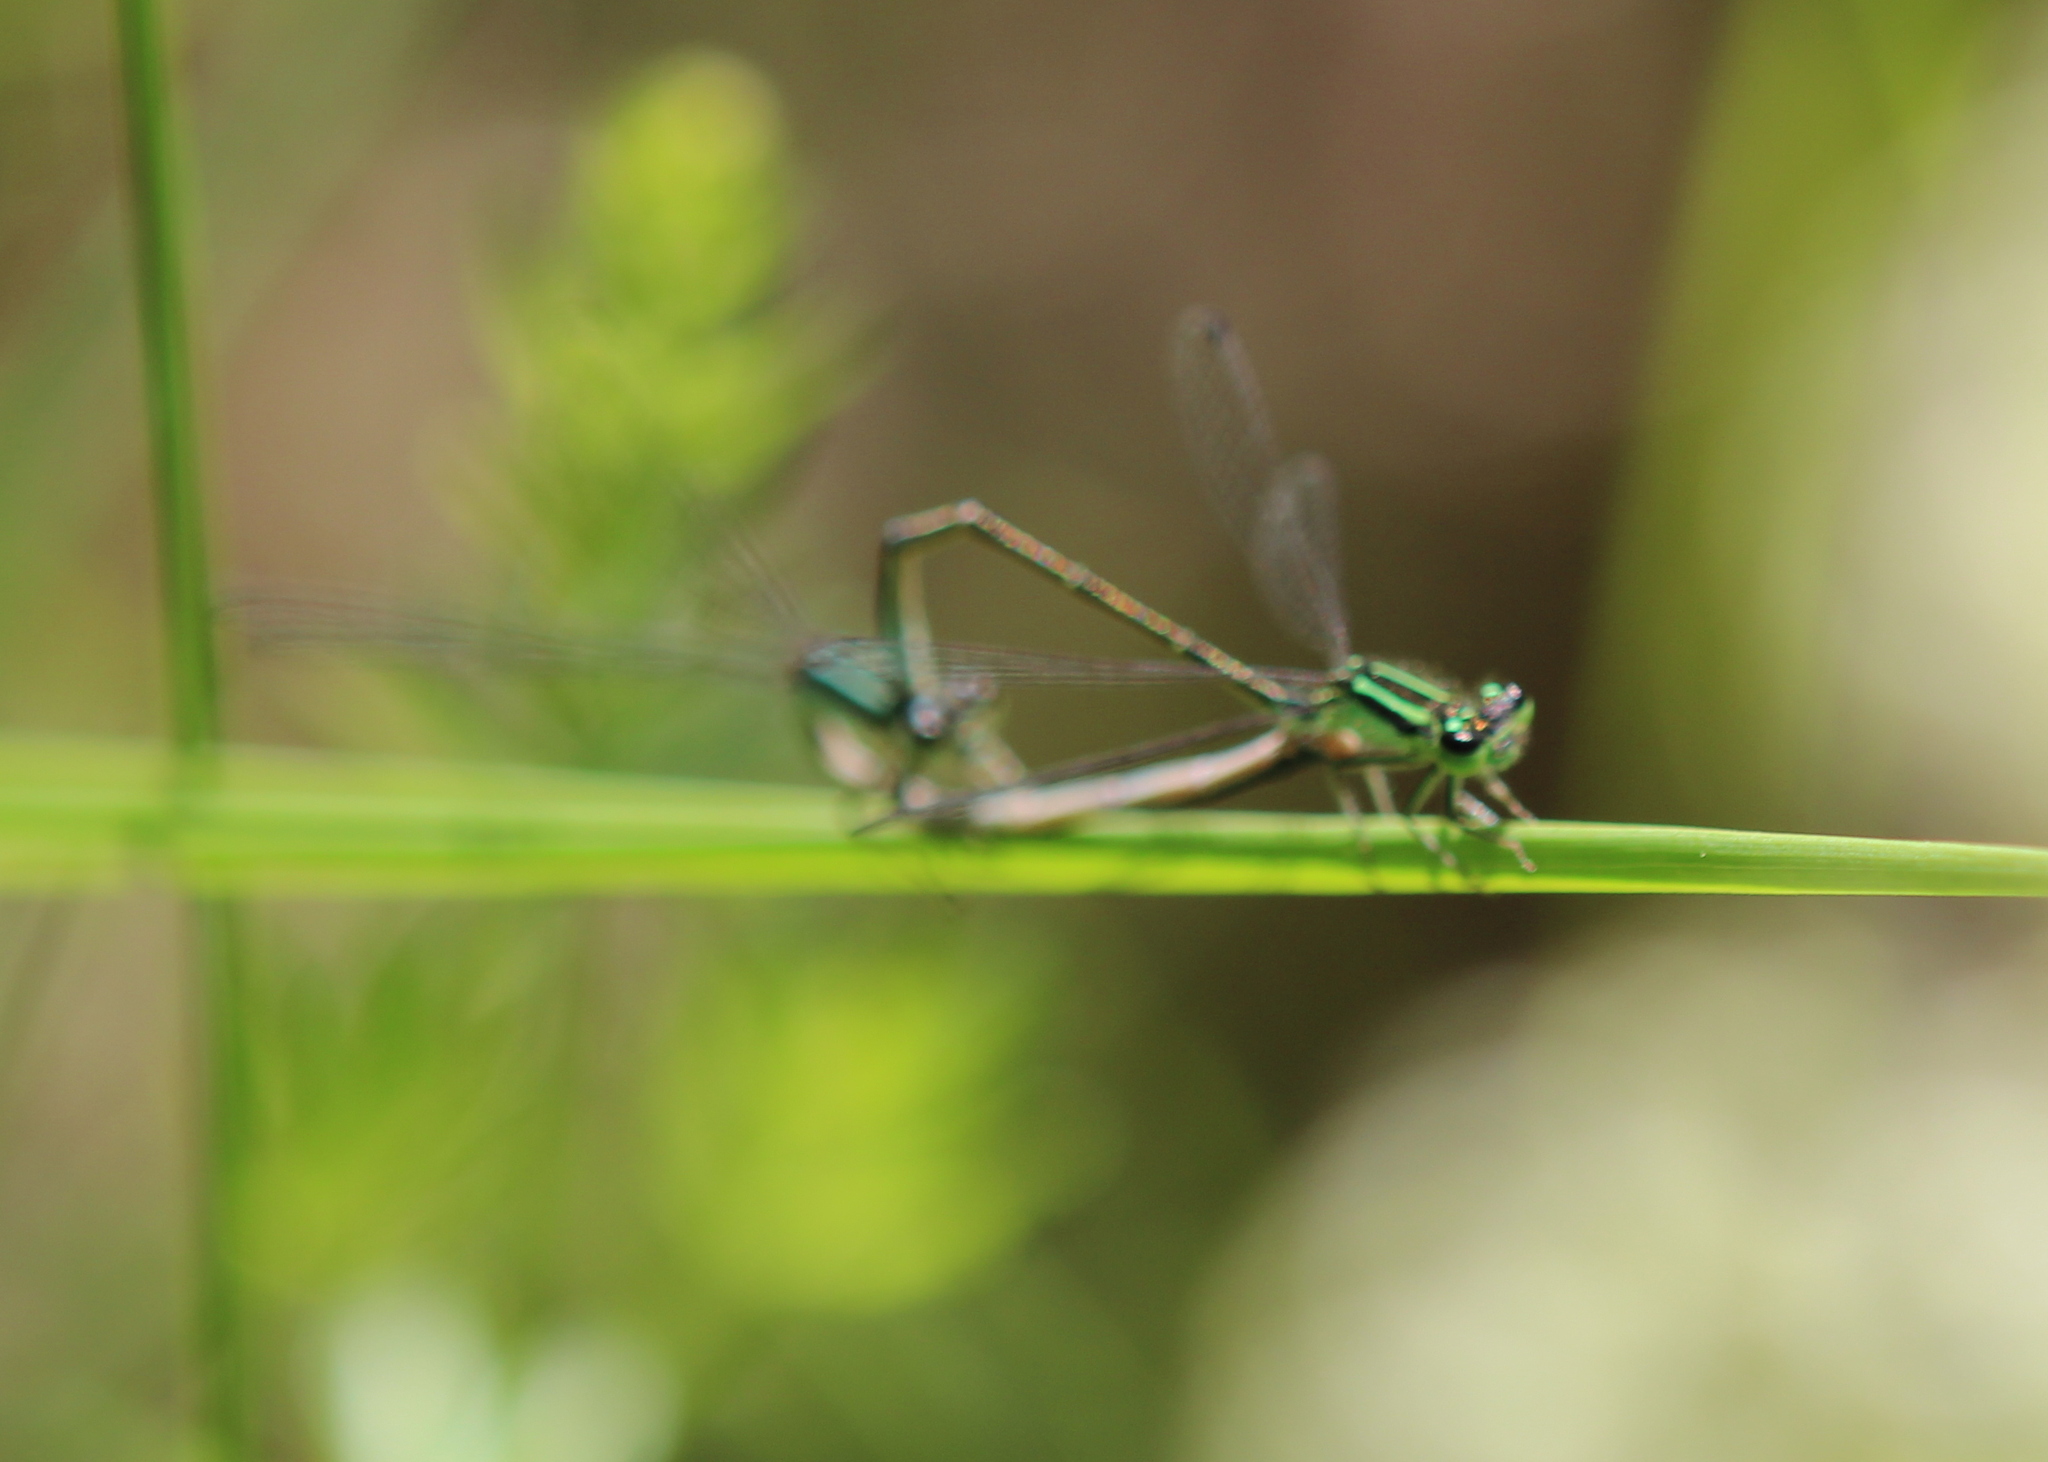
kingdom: Animalia
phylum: Arthropoda
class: Insecta
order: Odonata
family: Coenagrionidae
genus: Ischnura
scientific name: Ischnura verticalis
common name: Eastern forktail
